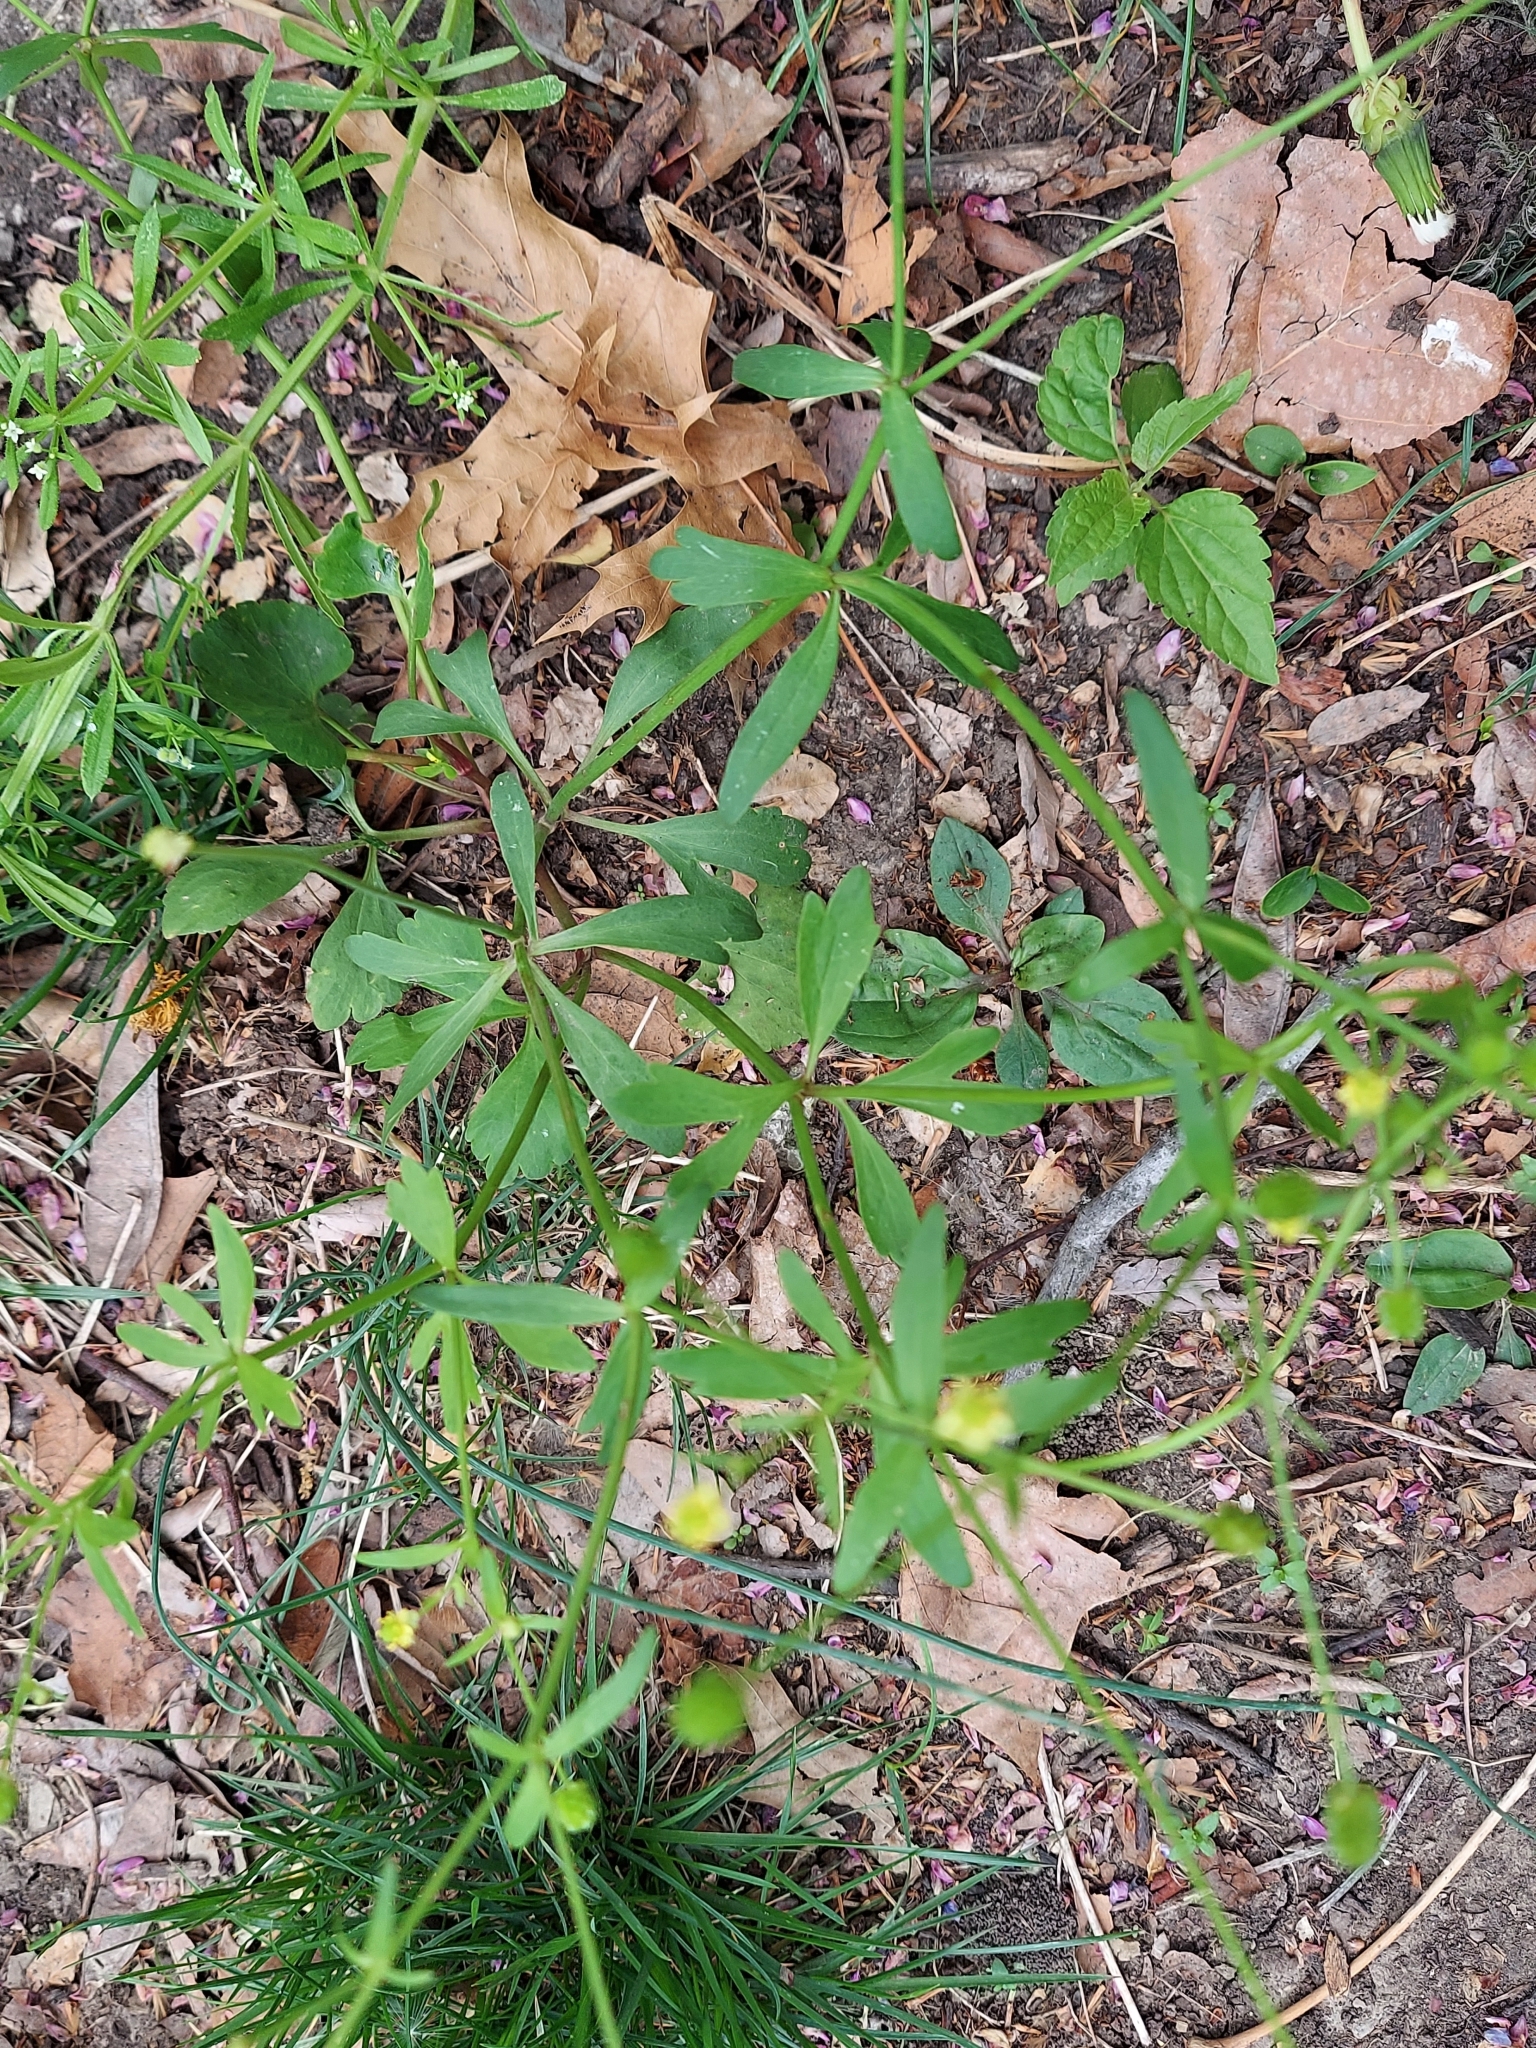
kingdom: Plantae
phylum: Tracheophyta
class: Magnoliopsida
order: Ranunculales
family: Ranunculaceae
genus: Ranunculus
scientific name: Ranunculus abortivus
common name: Early wood buttercup
